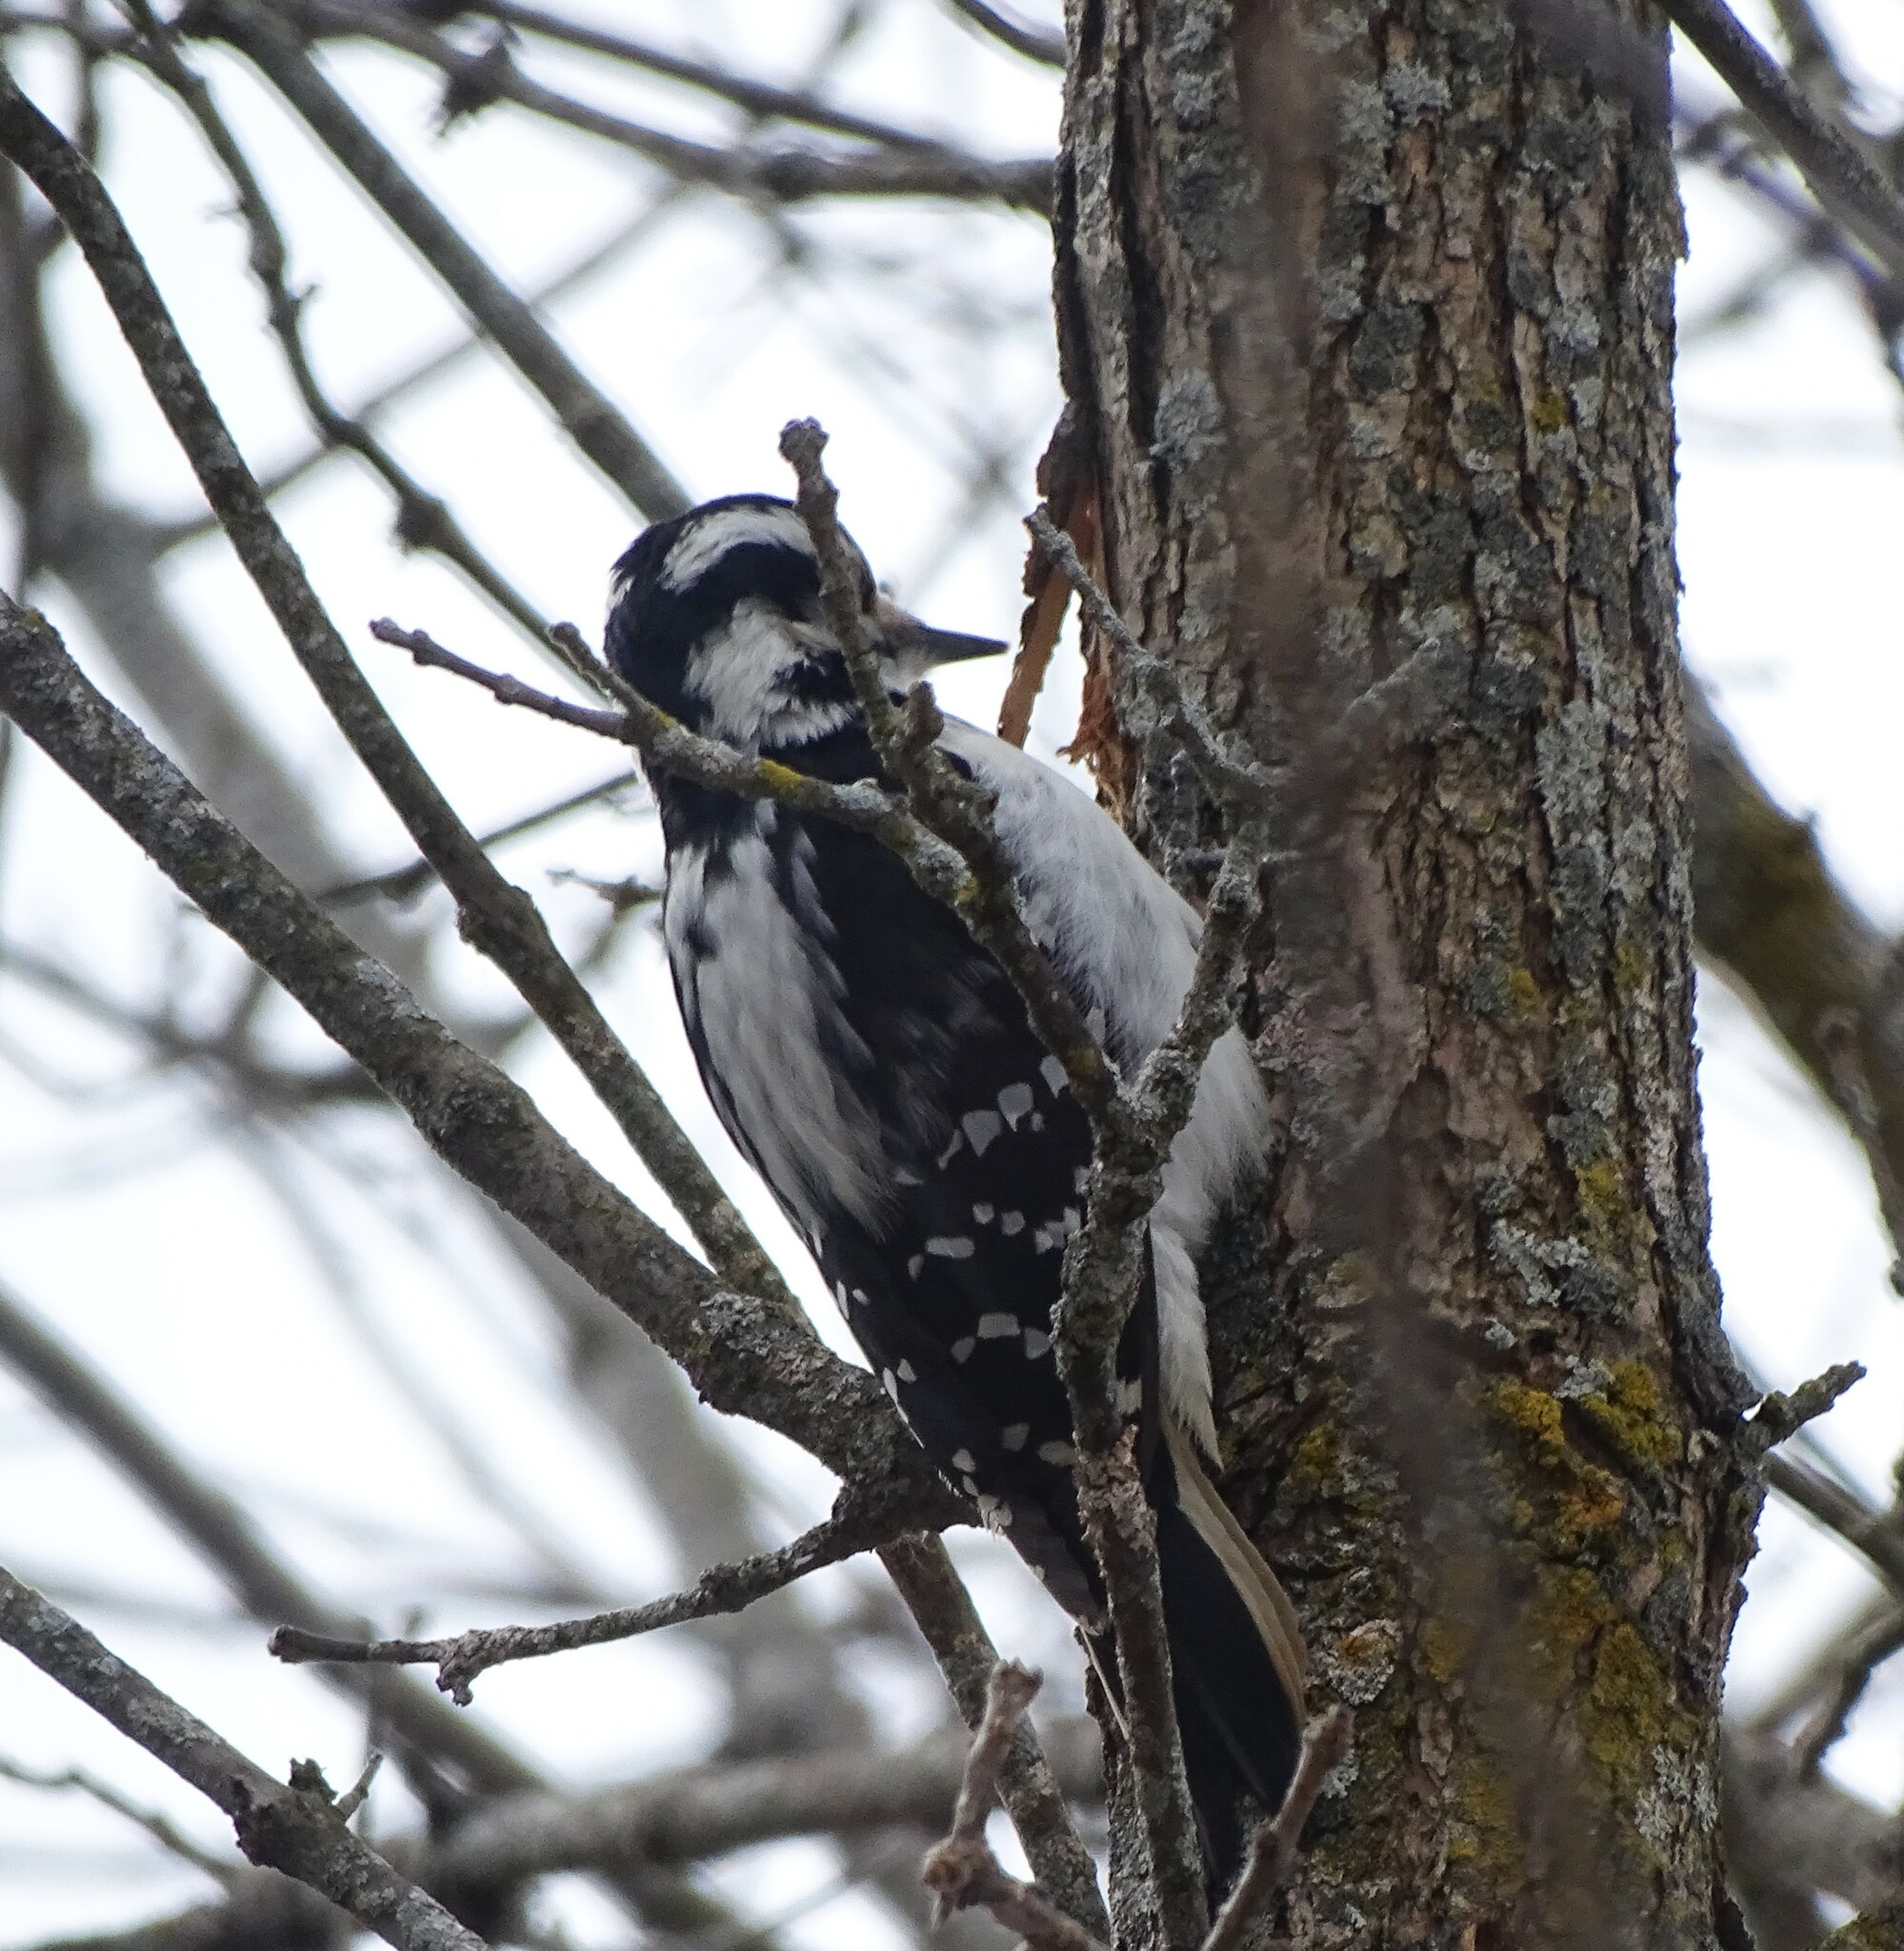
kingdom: Animalia
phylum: Chordata
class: Aves
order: Piciformes
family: Picidae
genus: Leuconotopicus
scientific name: Leuconotopicus villosus
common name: Hairy woodpecker
